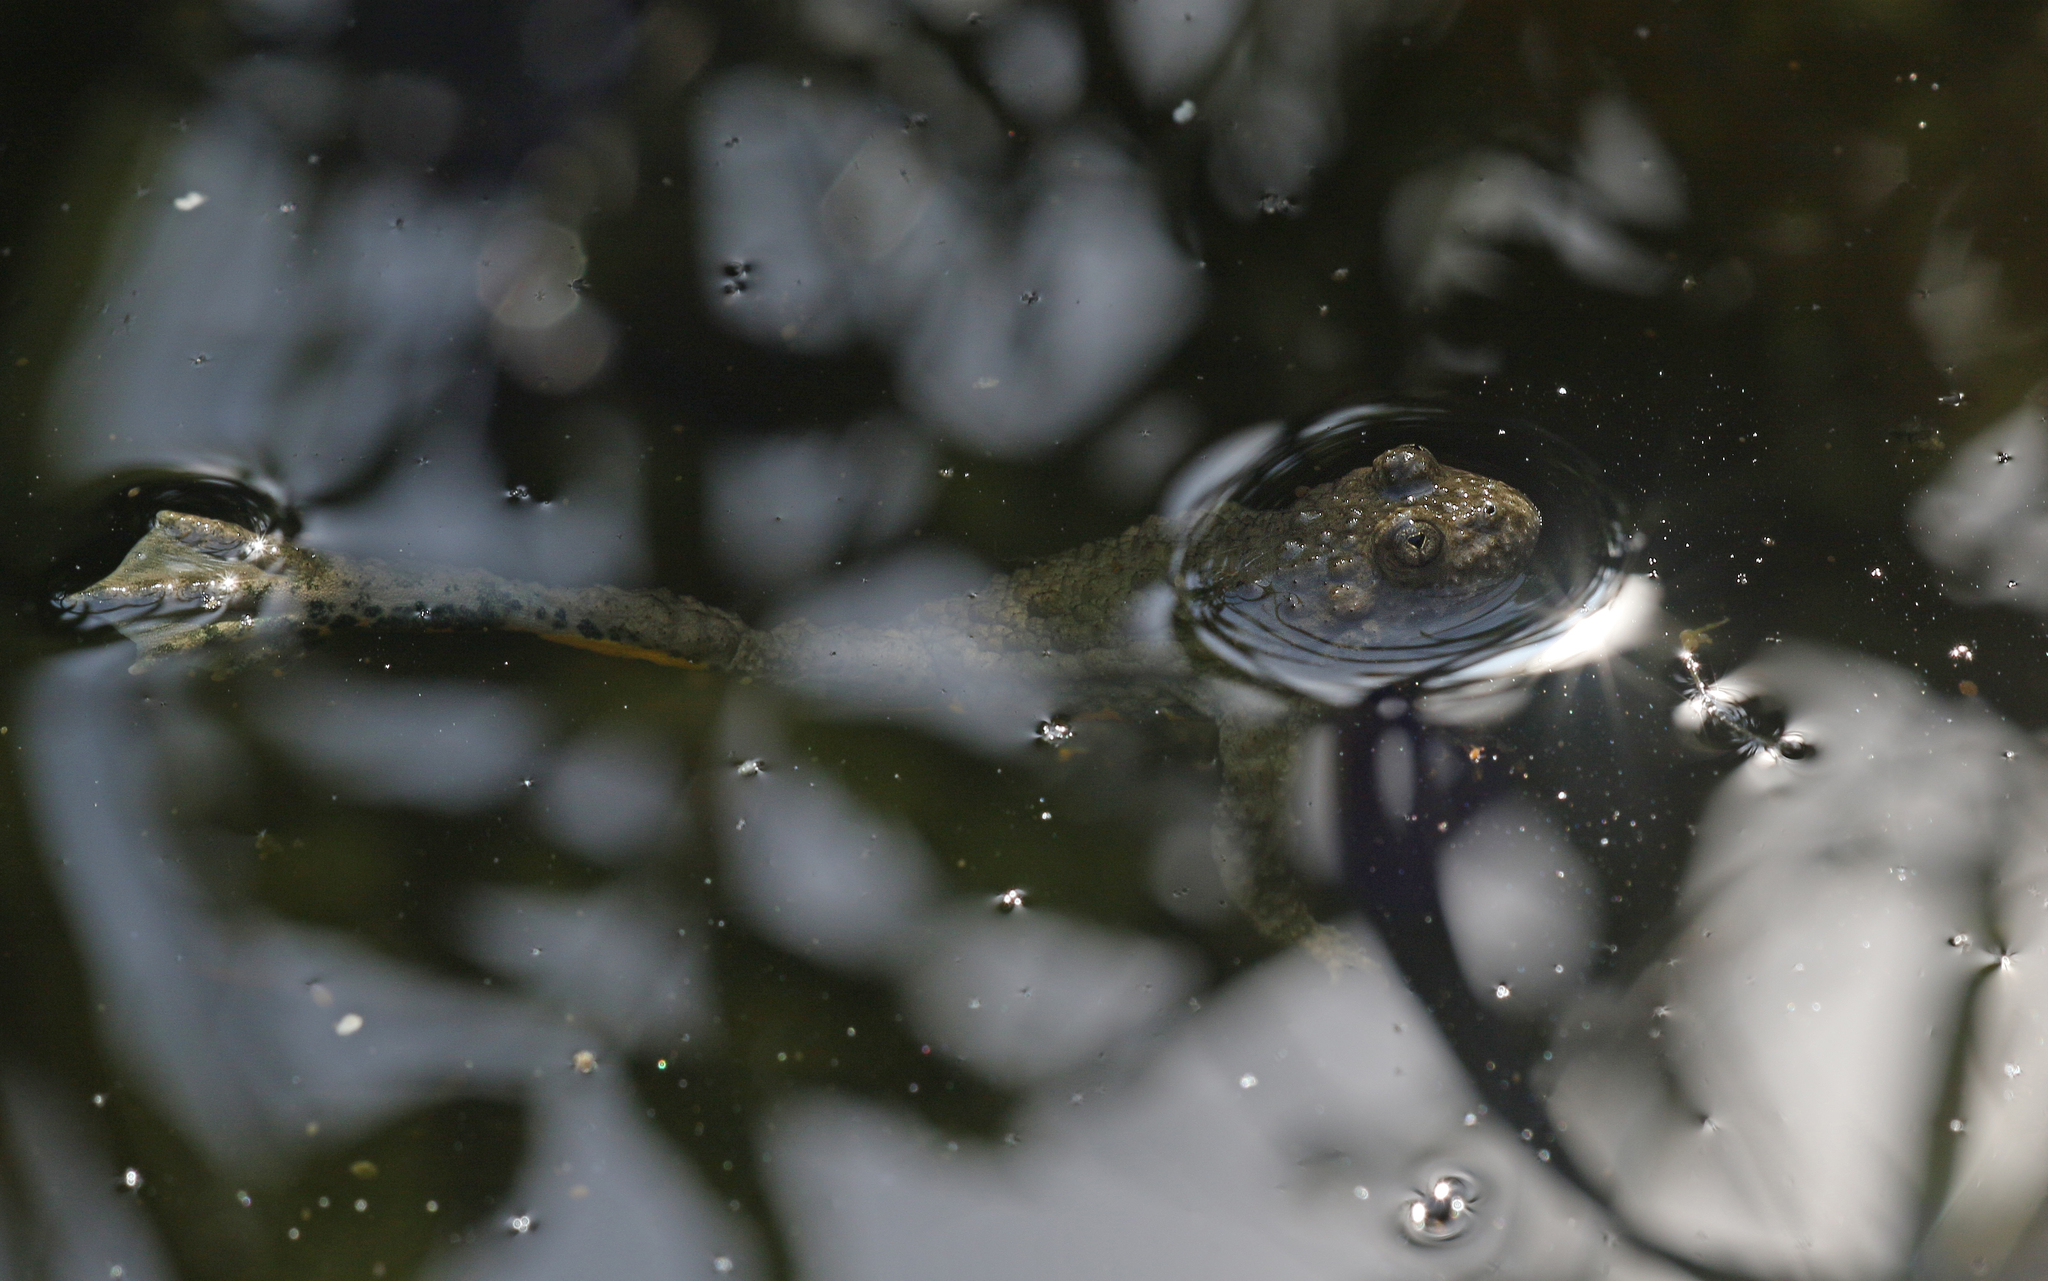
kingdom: Animalia
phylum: Chordata
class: Amphibia
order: Anura
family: Bombinatoridae
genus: Bombina
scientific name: Bombina variegata
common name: Yellow-bellied toad
